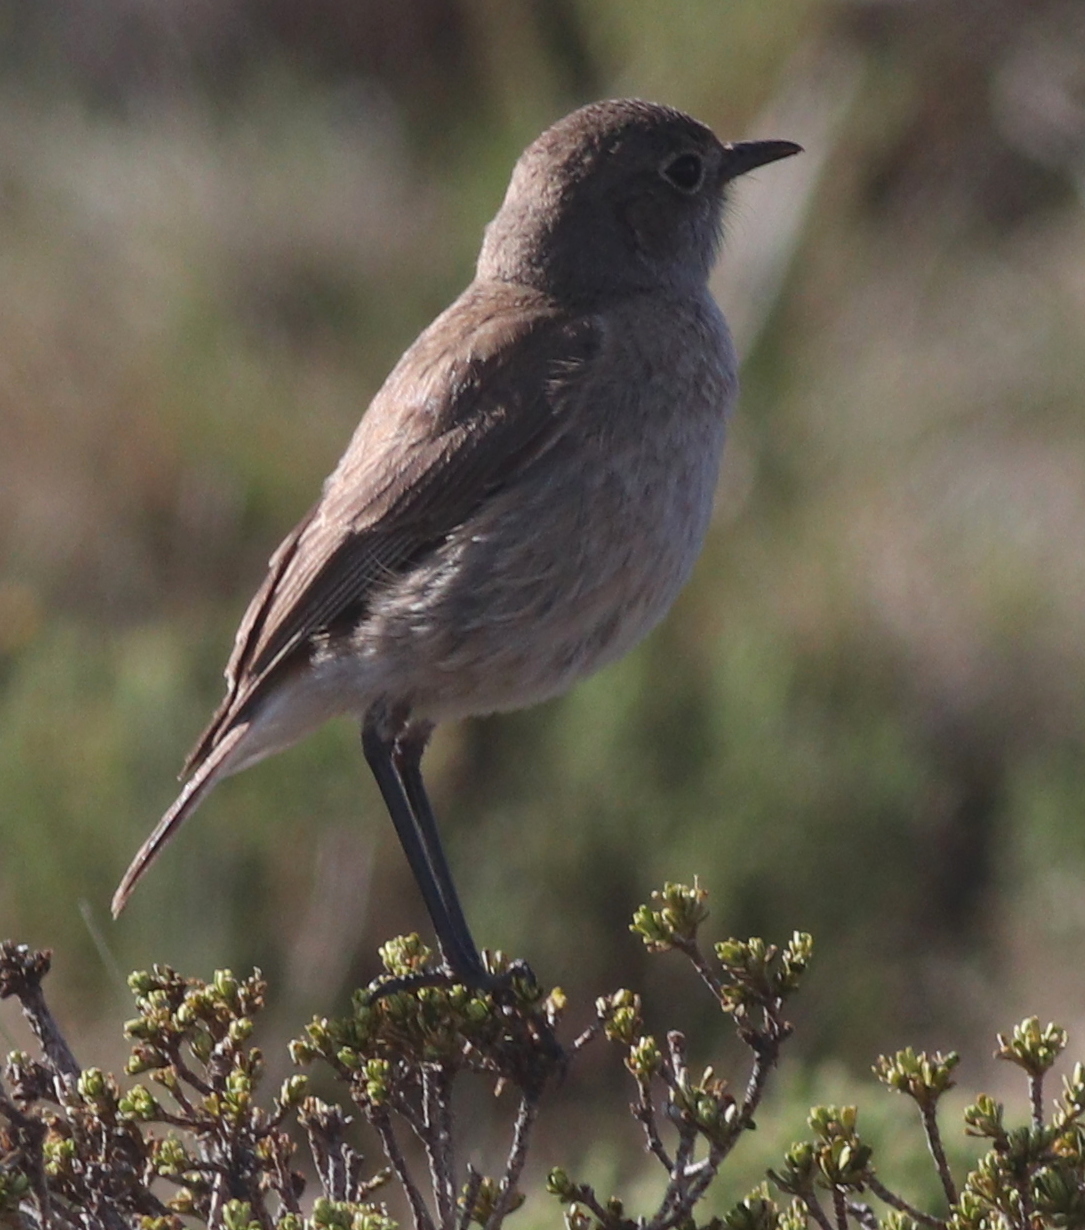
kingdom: Animalia
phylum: Chordata
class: Aves
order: Passeriformes
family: Muscicapidae
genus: Emarginata
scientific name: Emarginata sinuata
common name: Sickle-winged chat
